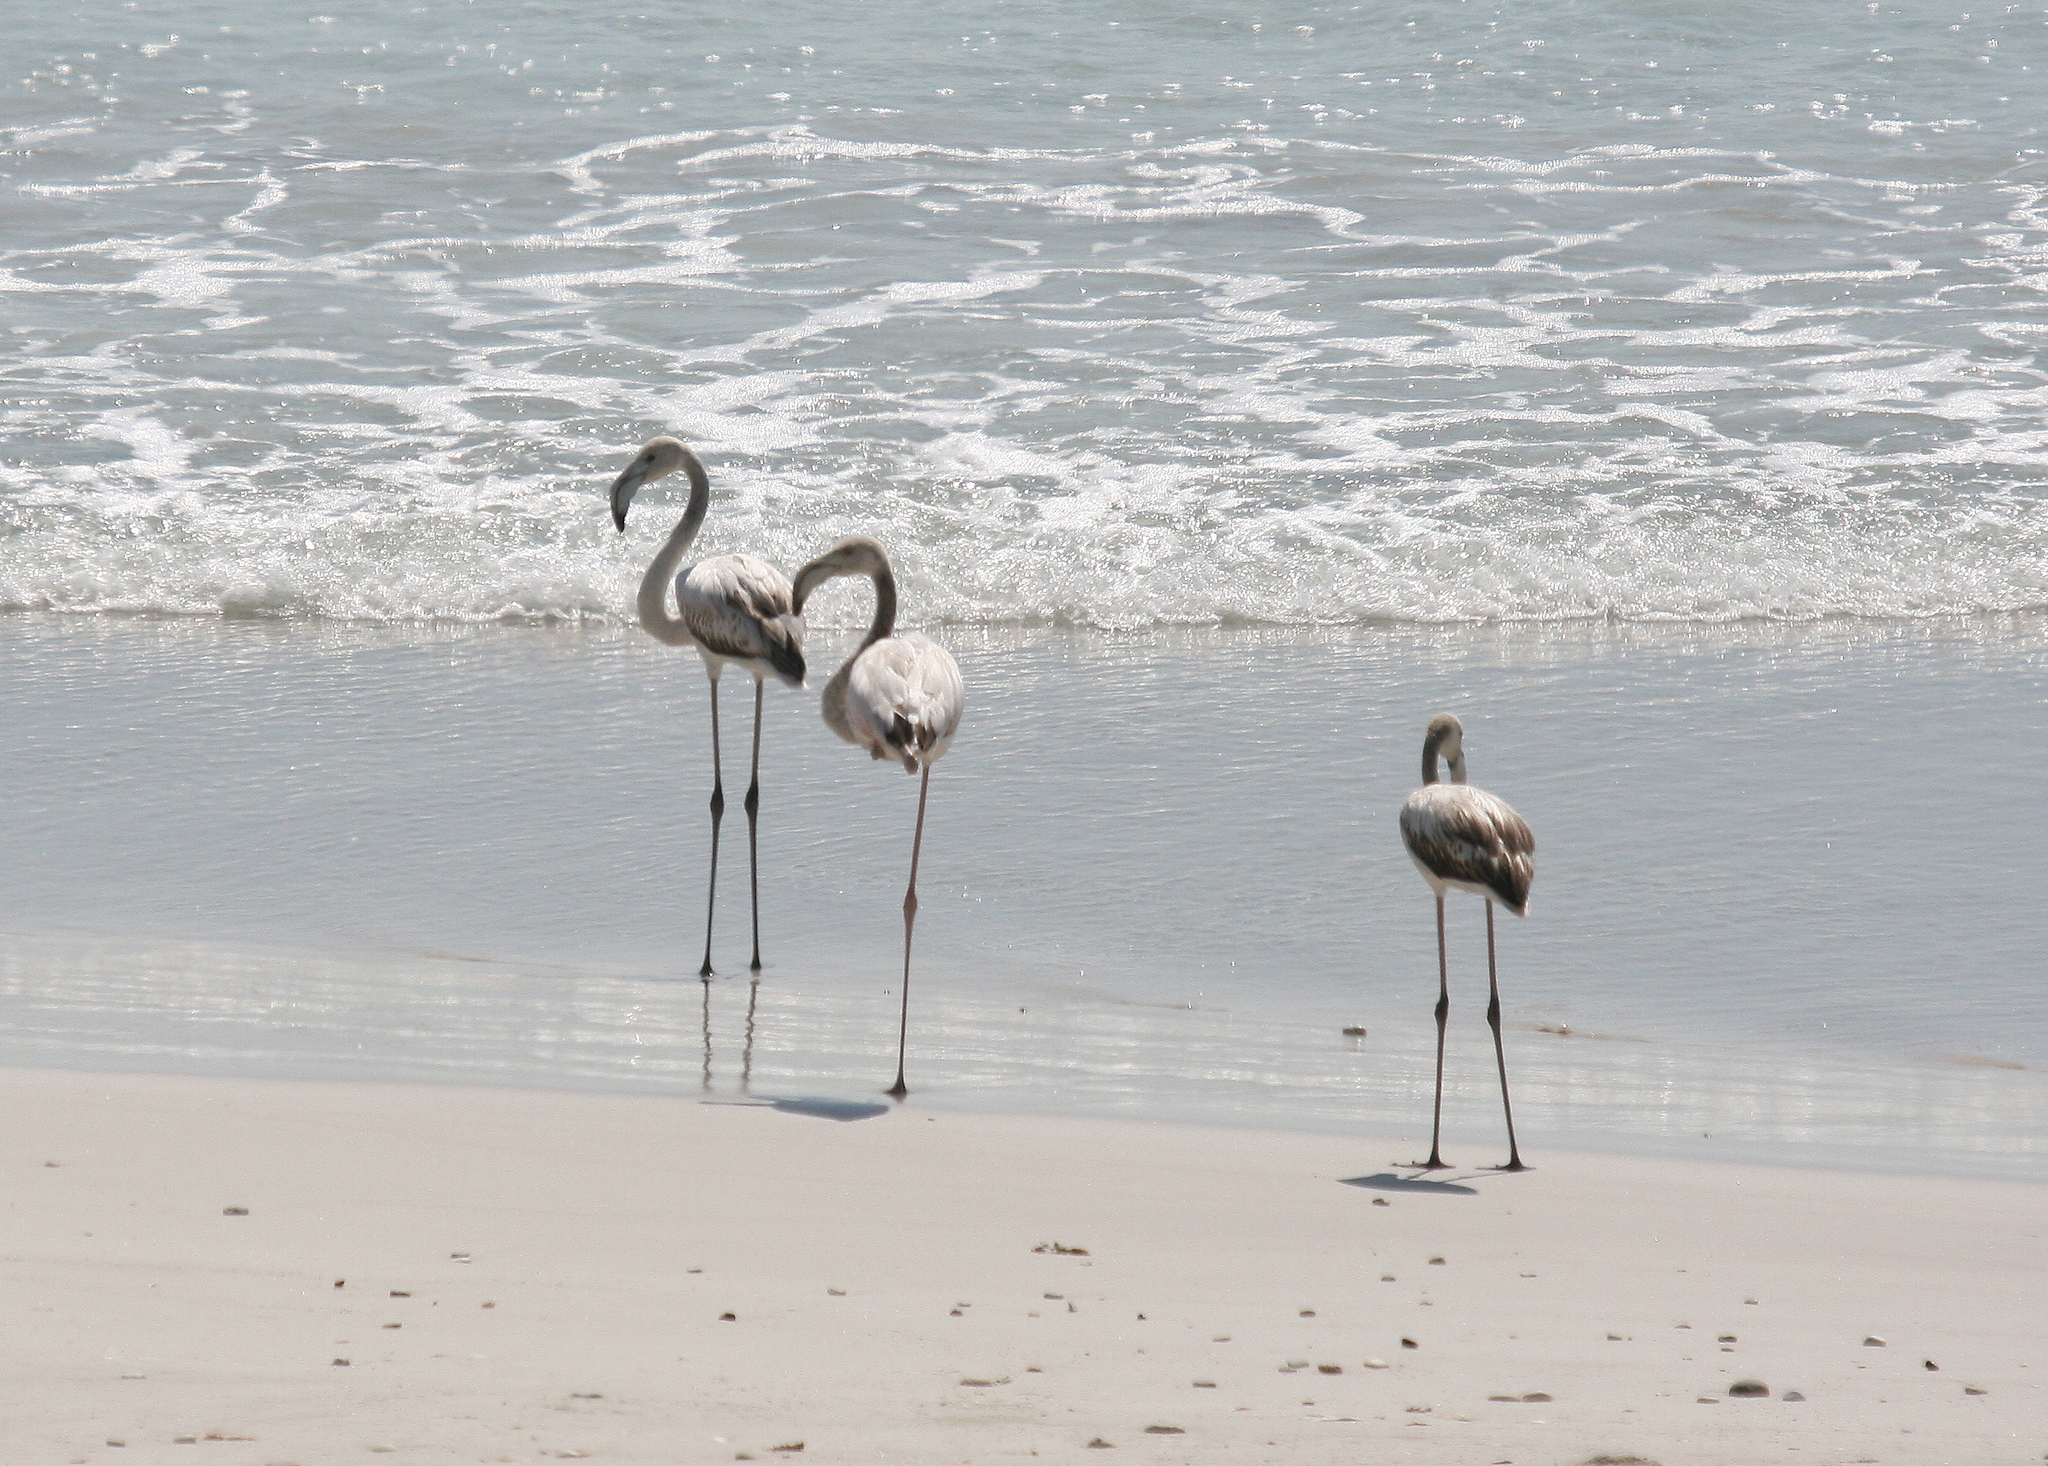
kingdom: Animalia
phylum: Chordata
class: Aves
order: Phoenicopteriformes
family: Phoenicopteridae
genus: Phoenicopterus
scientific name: Phoenicopterus roseus
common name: Greater flamingo
